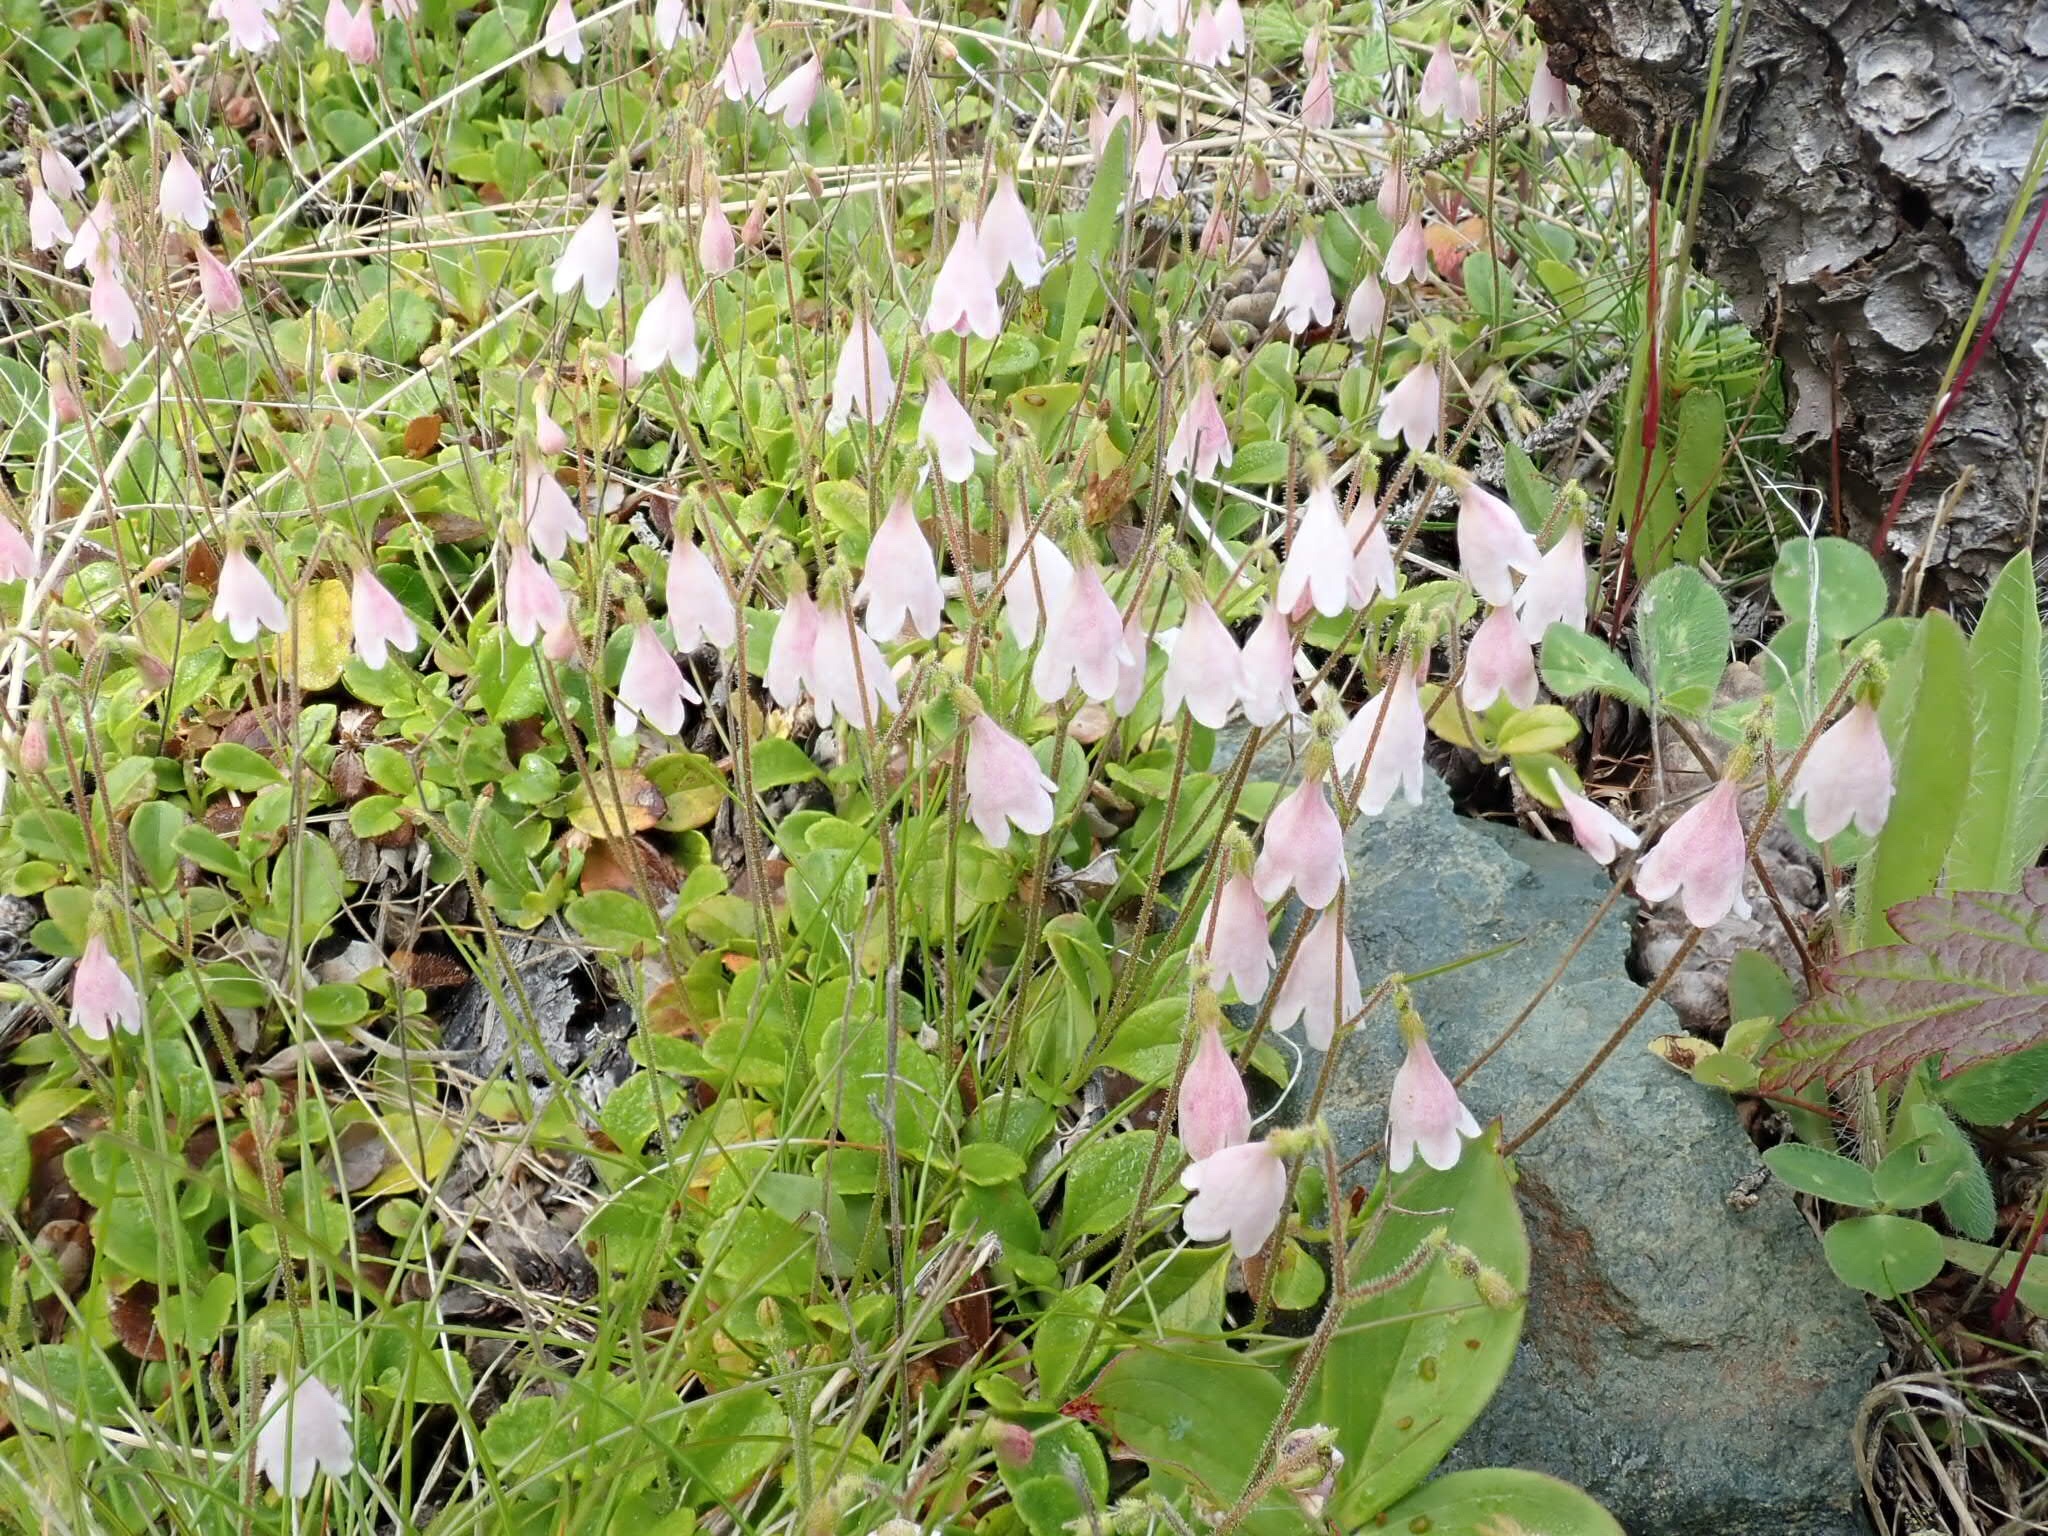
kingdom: Plantae
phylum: Tracheophyta
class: Magnoliopsida
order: Dipsacales
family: Caprifoliaceae
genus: Linnaea
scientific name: Linnaea borealis
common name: Twinflower
